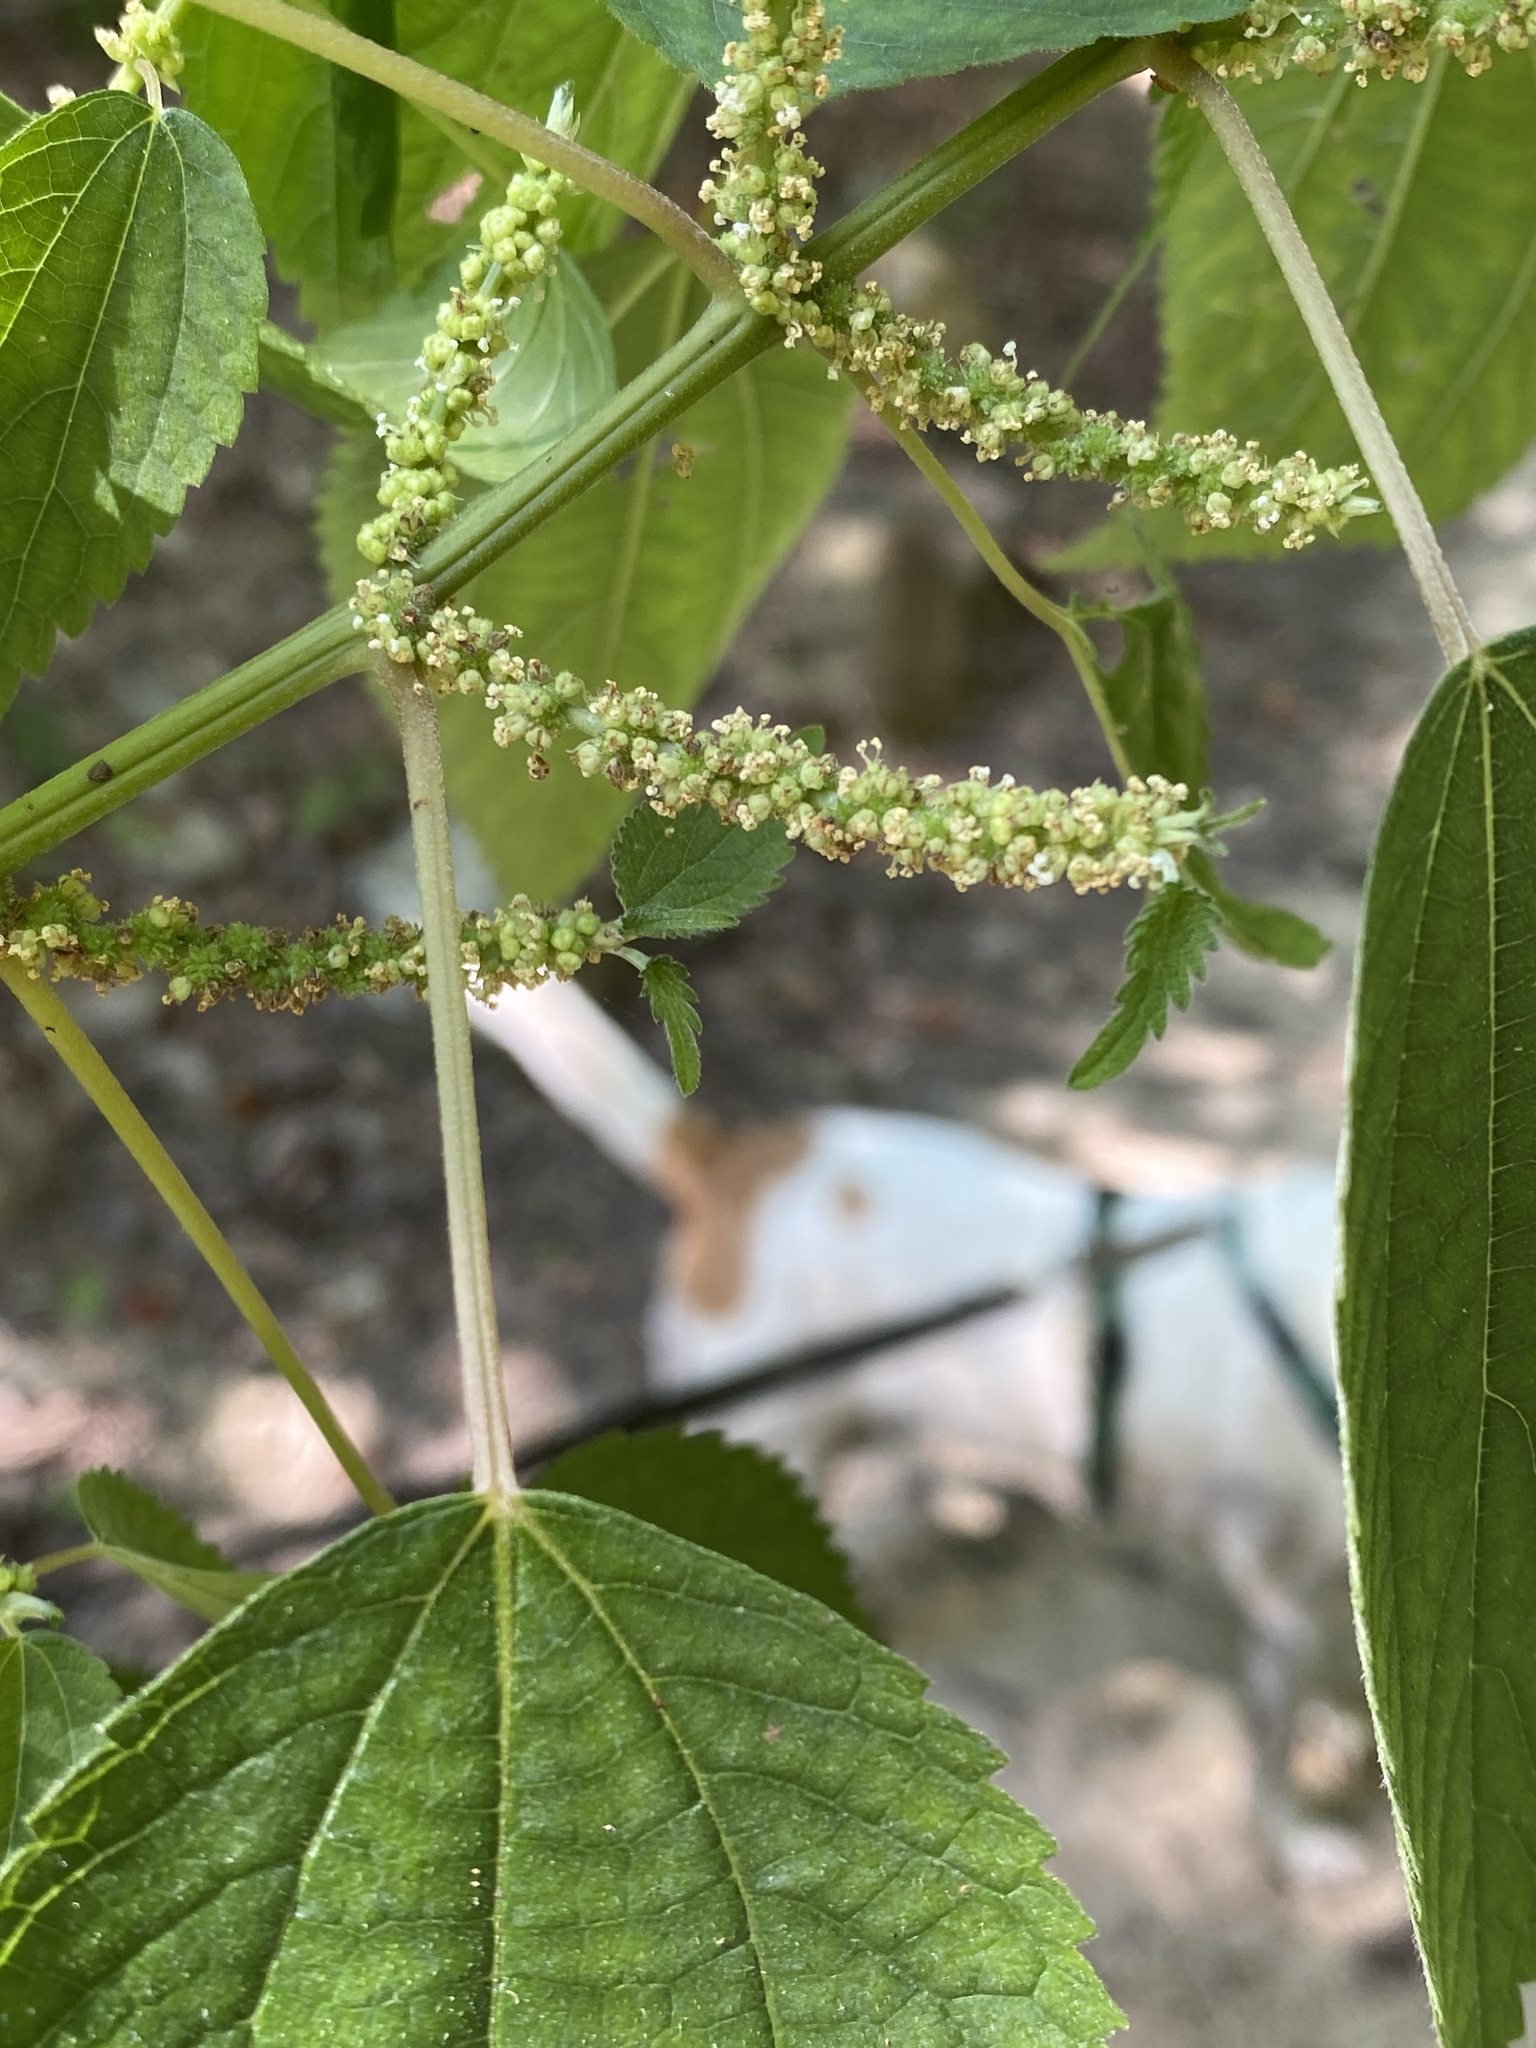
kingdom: Plantae
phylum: Tracheophyta
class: Magnoliopsida
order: Rosales
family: Urticaceae
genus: Boehmeria
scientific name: Boehmeria cylindrica
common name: Bog-hemp
